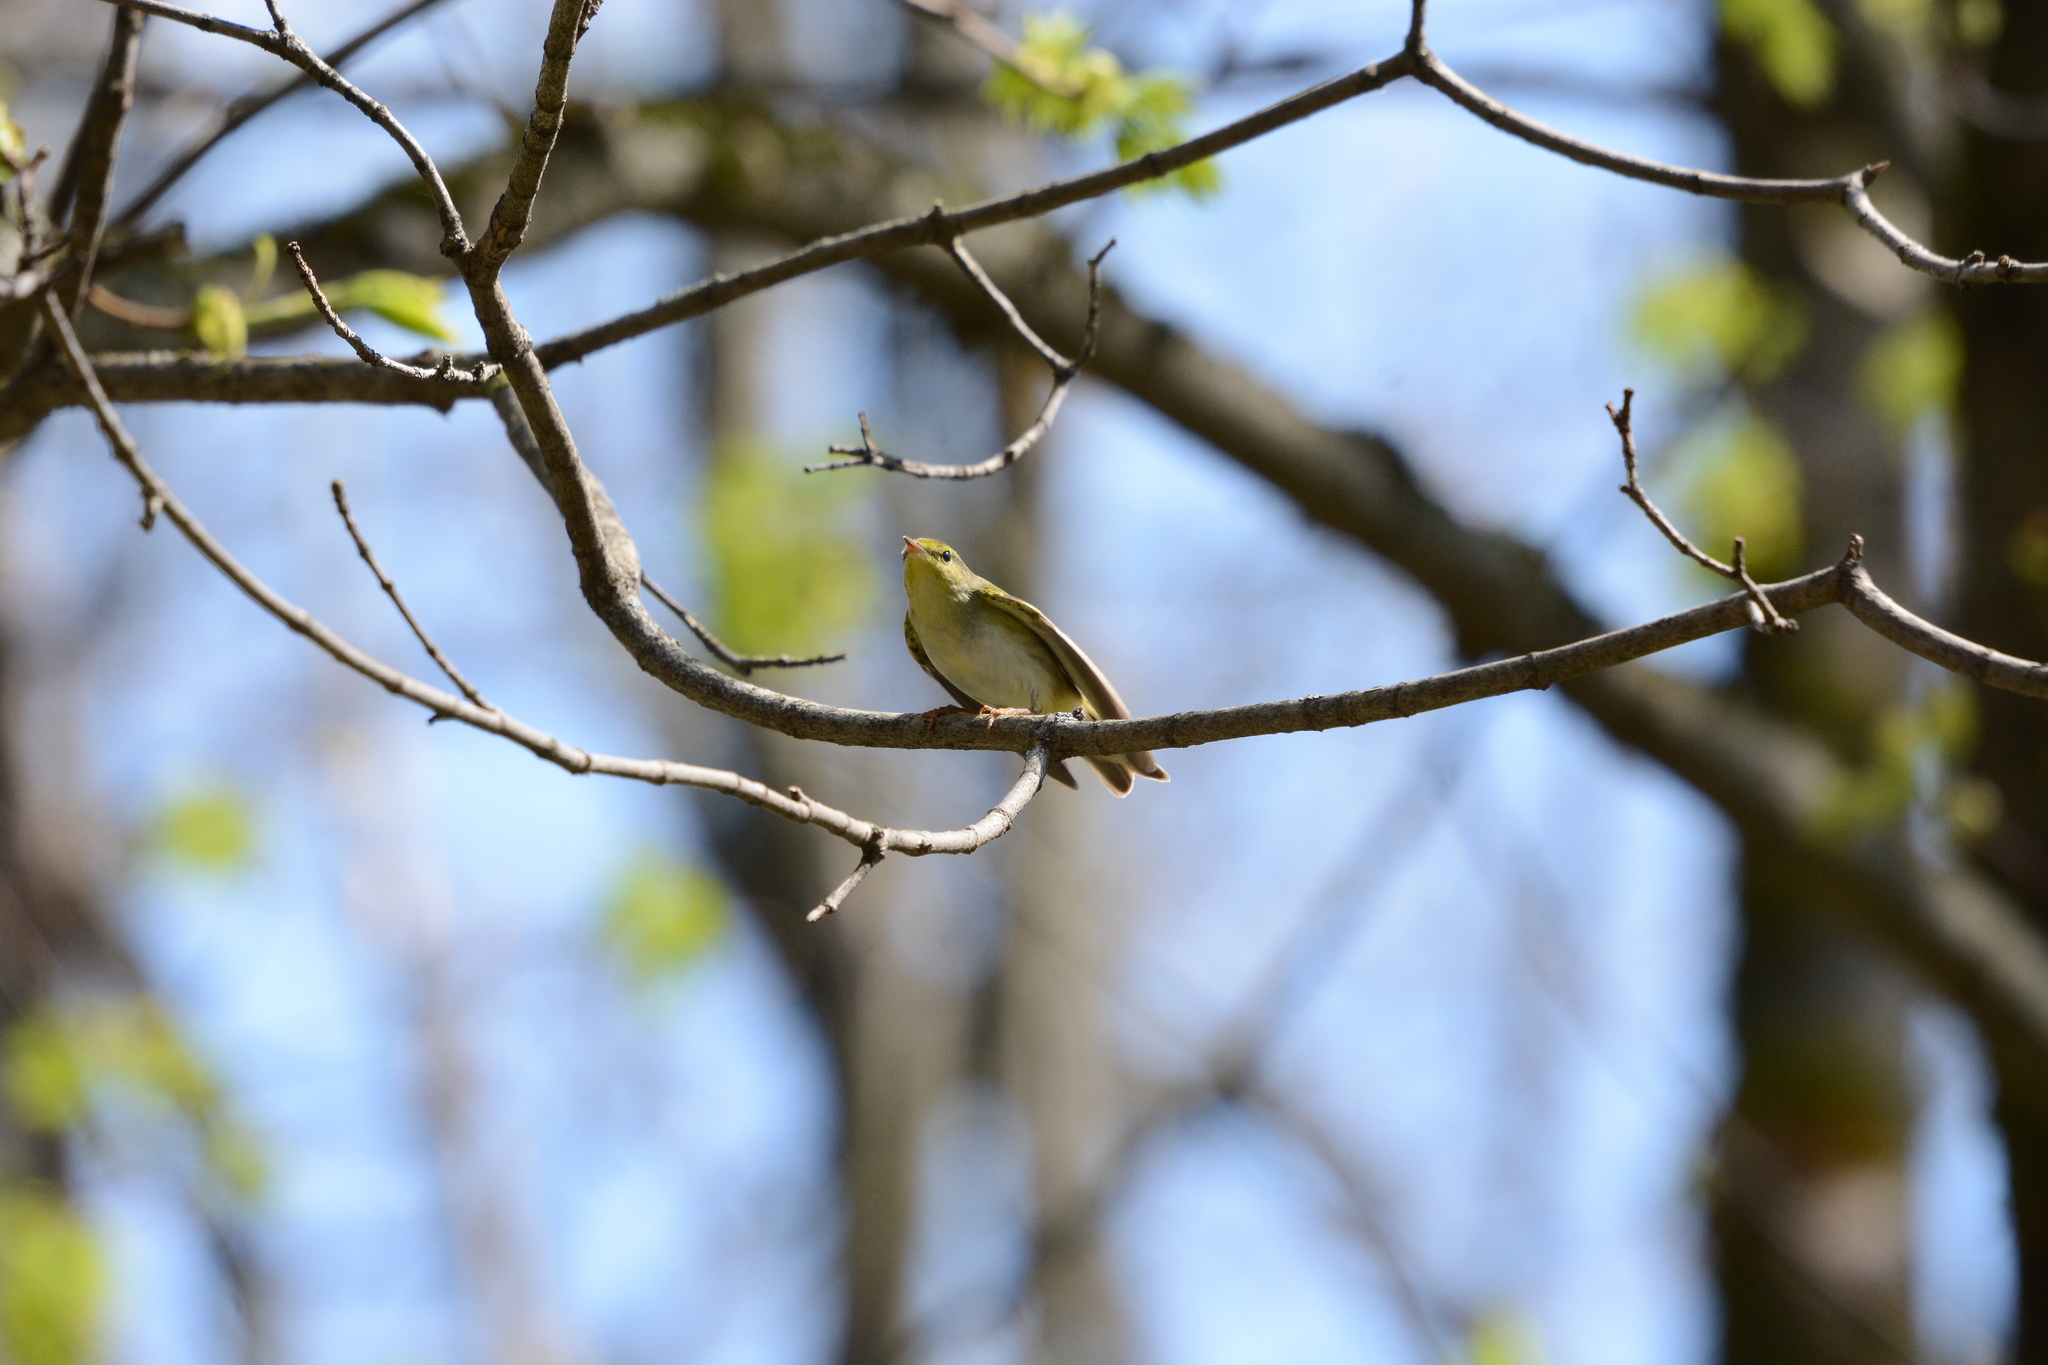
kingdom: Animalia
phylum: Chordata
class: Aves
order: Passeriformes
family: Phylloscopidae
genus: Phylloscopus
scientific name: Phylloscopus sibillatrix
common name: Wood warbler
